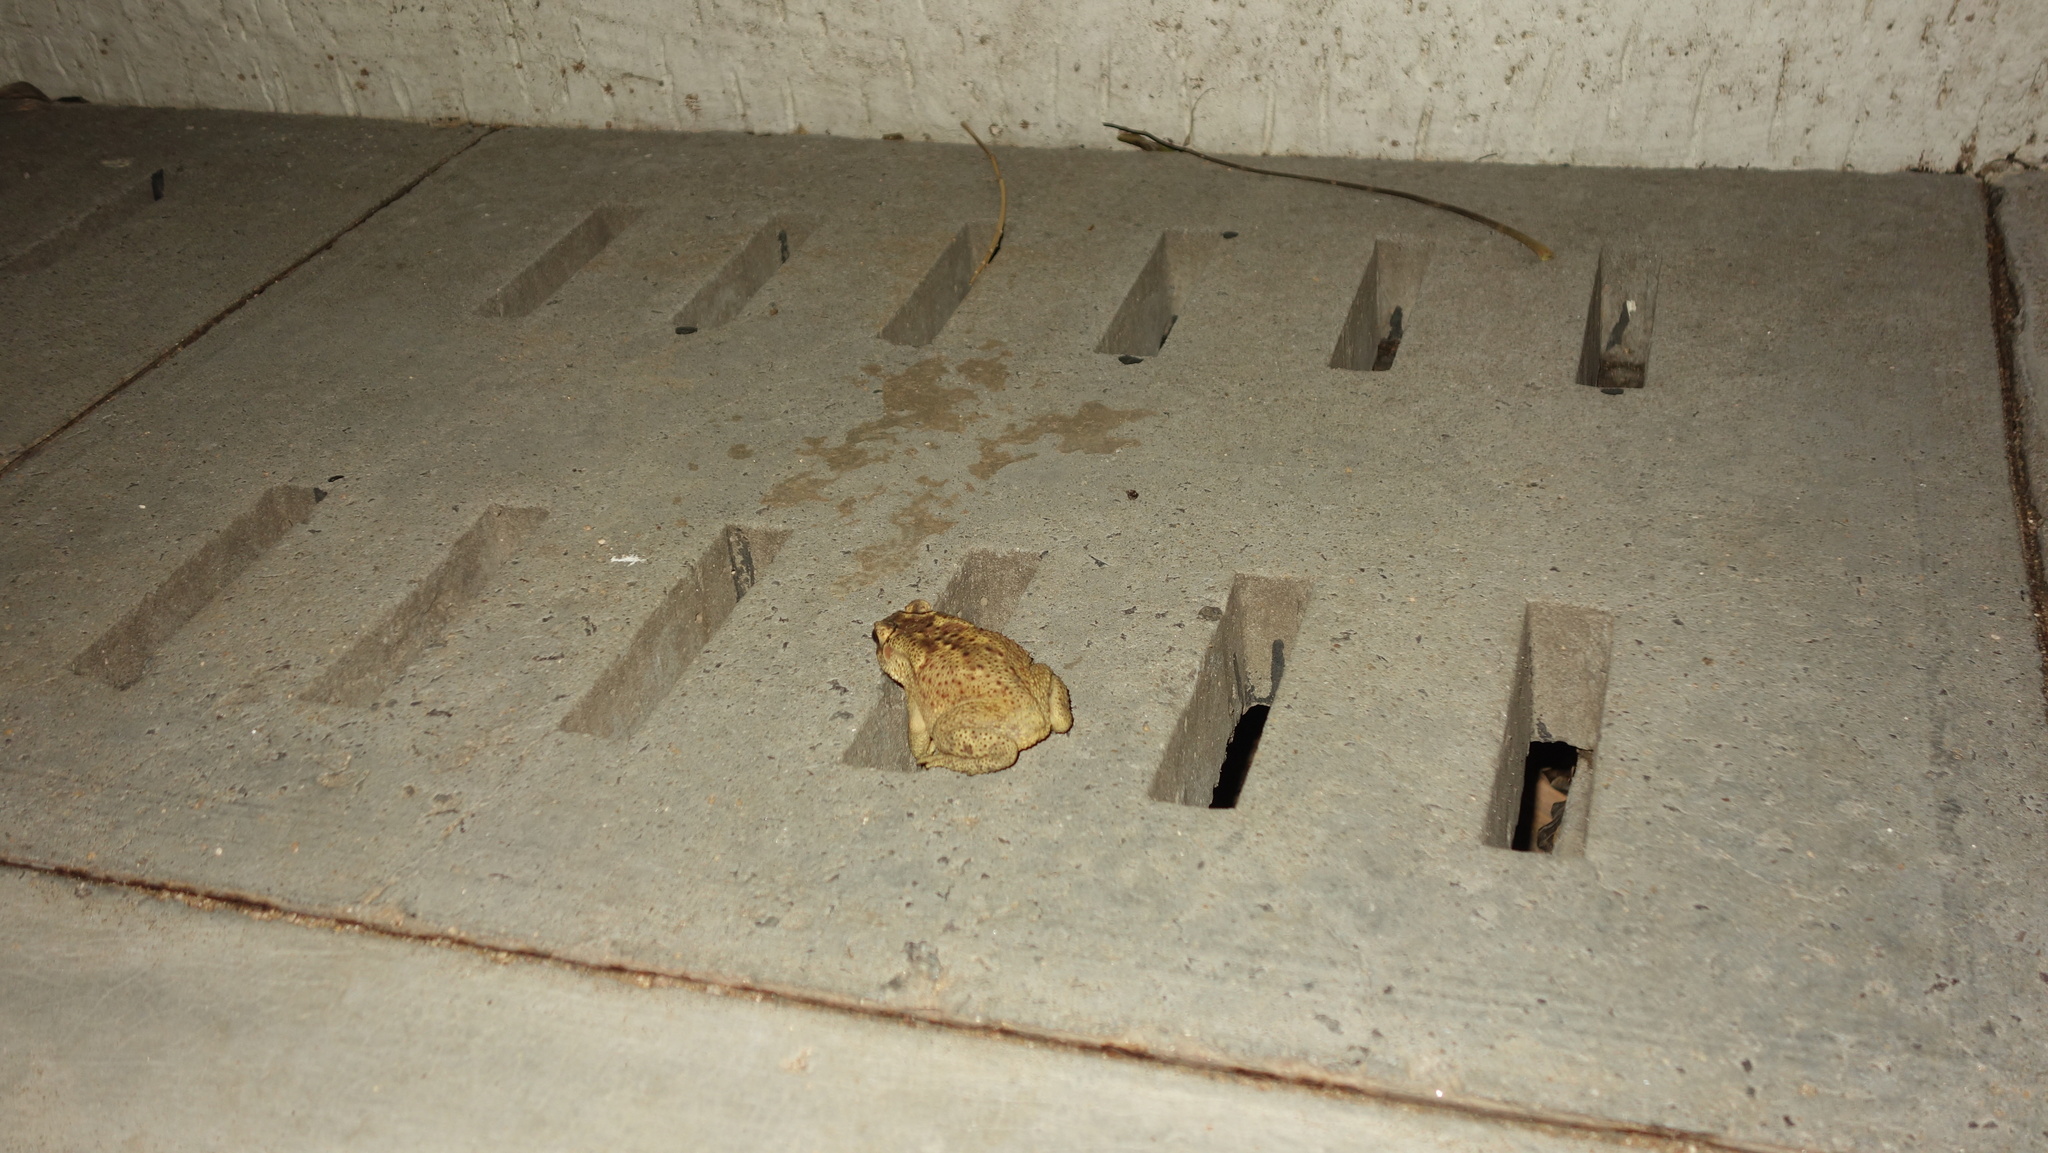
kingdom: Animalia
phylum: Chordata
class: Amphibia
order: Anura
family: Bufonidae
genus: Duttaphrynus
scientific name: Duttaphrynus melanostictus
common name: Common sunda toad
